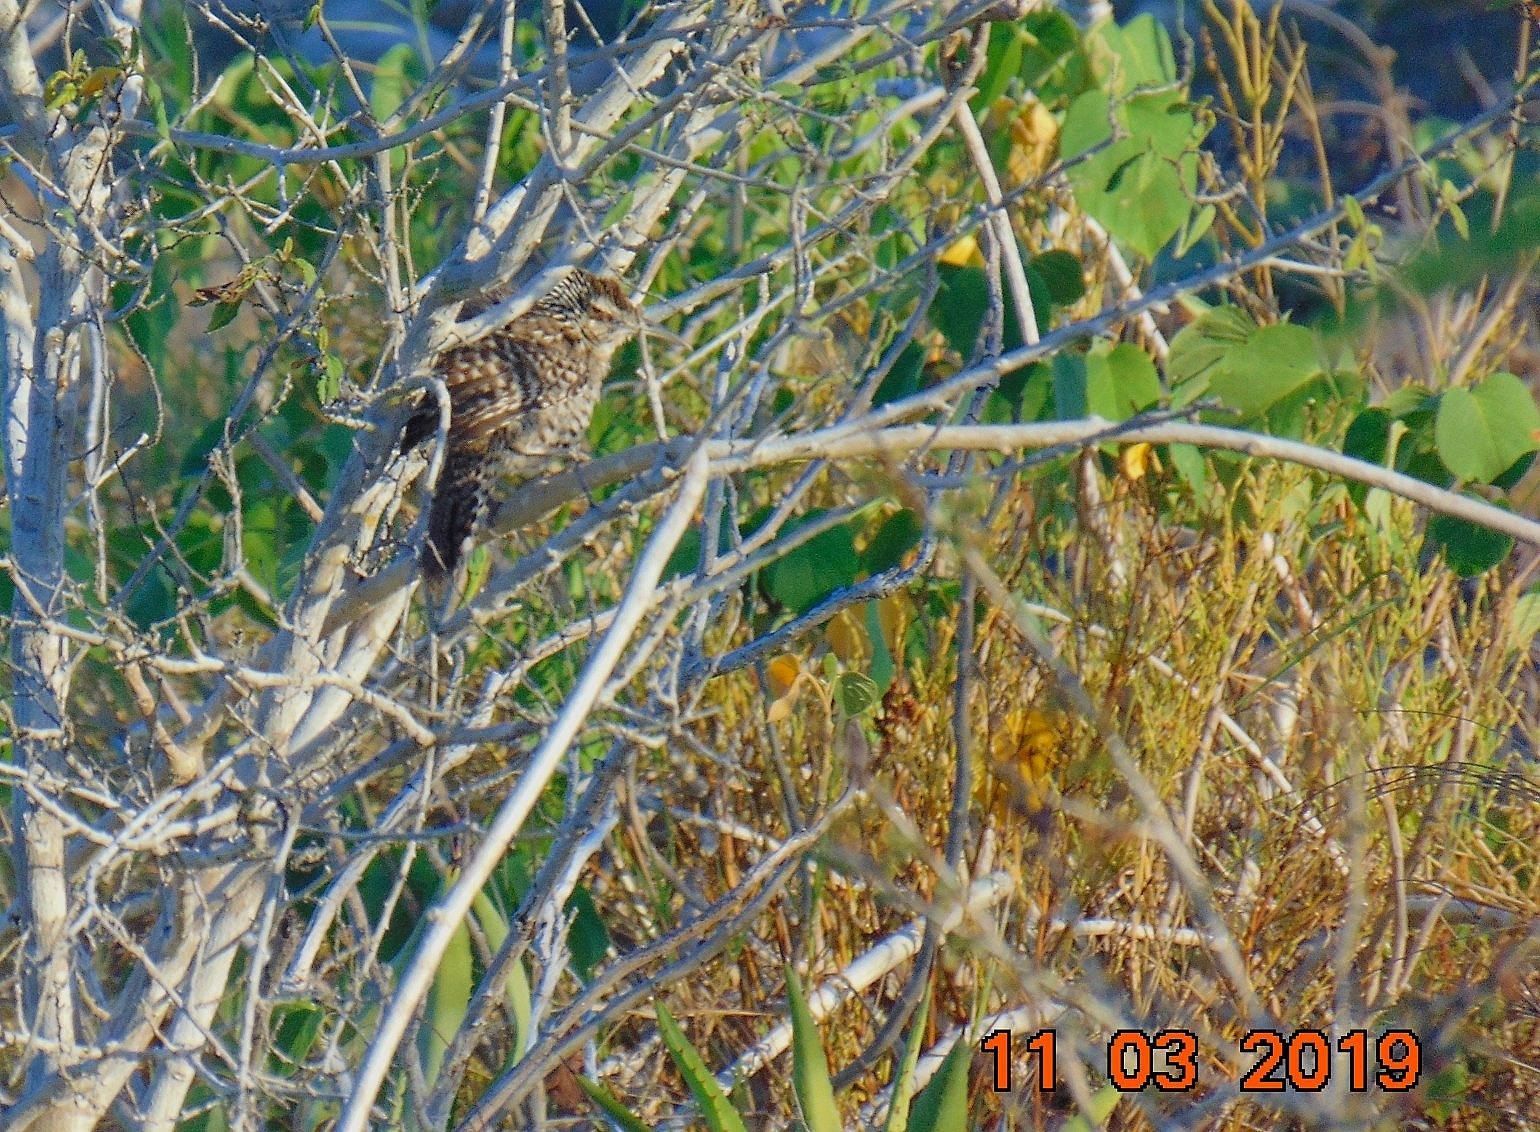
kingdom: Animalia
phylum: Chordata
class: Aves
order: Passeriformes
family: Troglodytidae
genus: Campylorhynchus
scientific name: Campylorhynchus yucatanicus
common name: Yucatan wren
